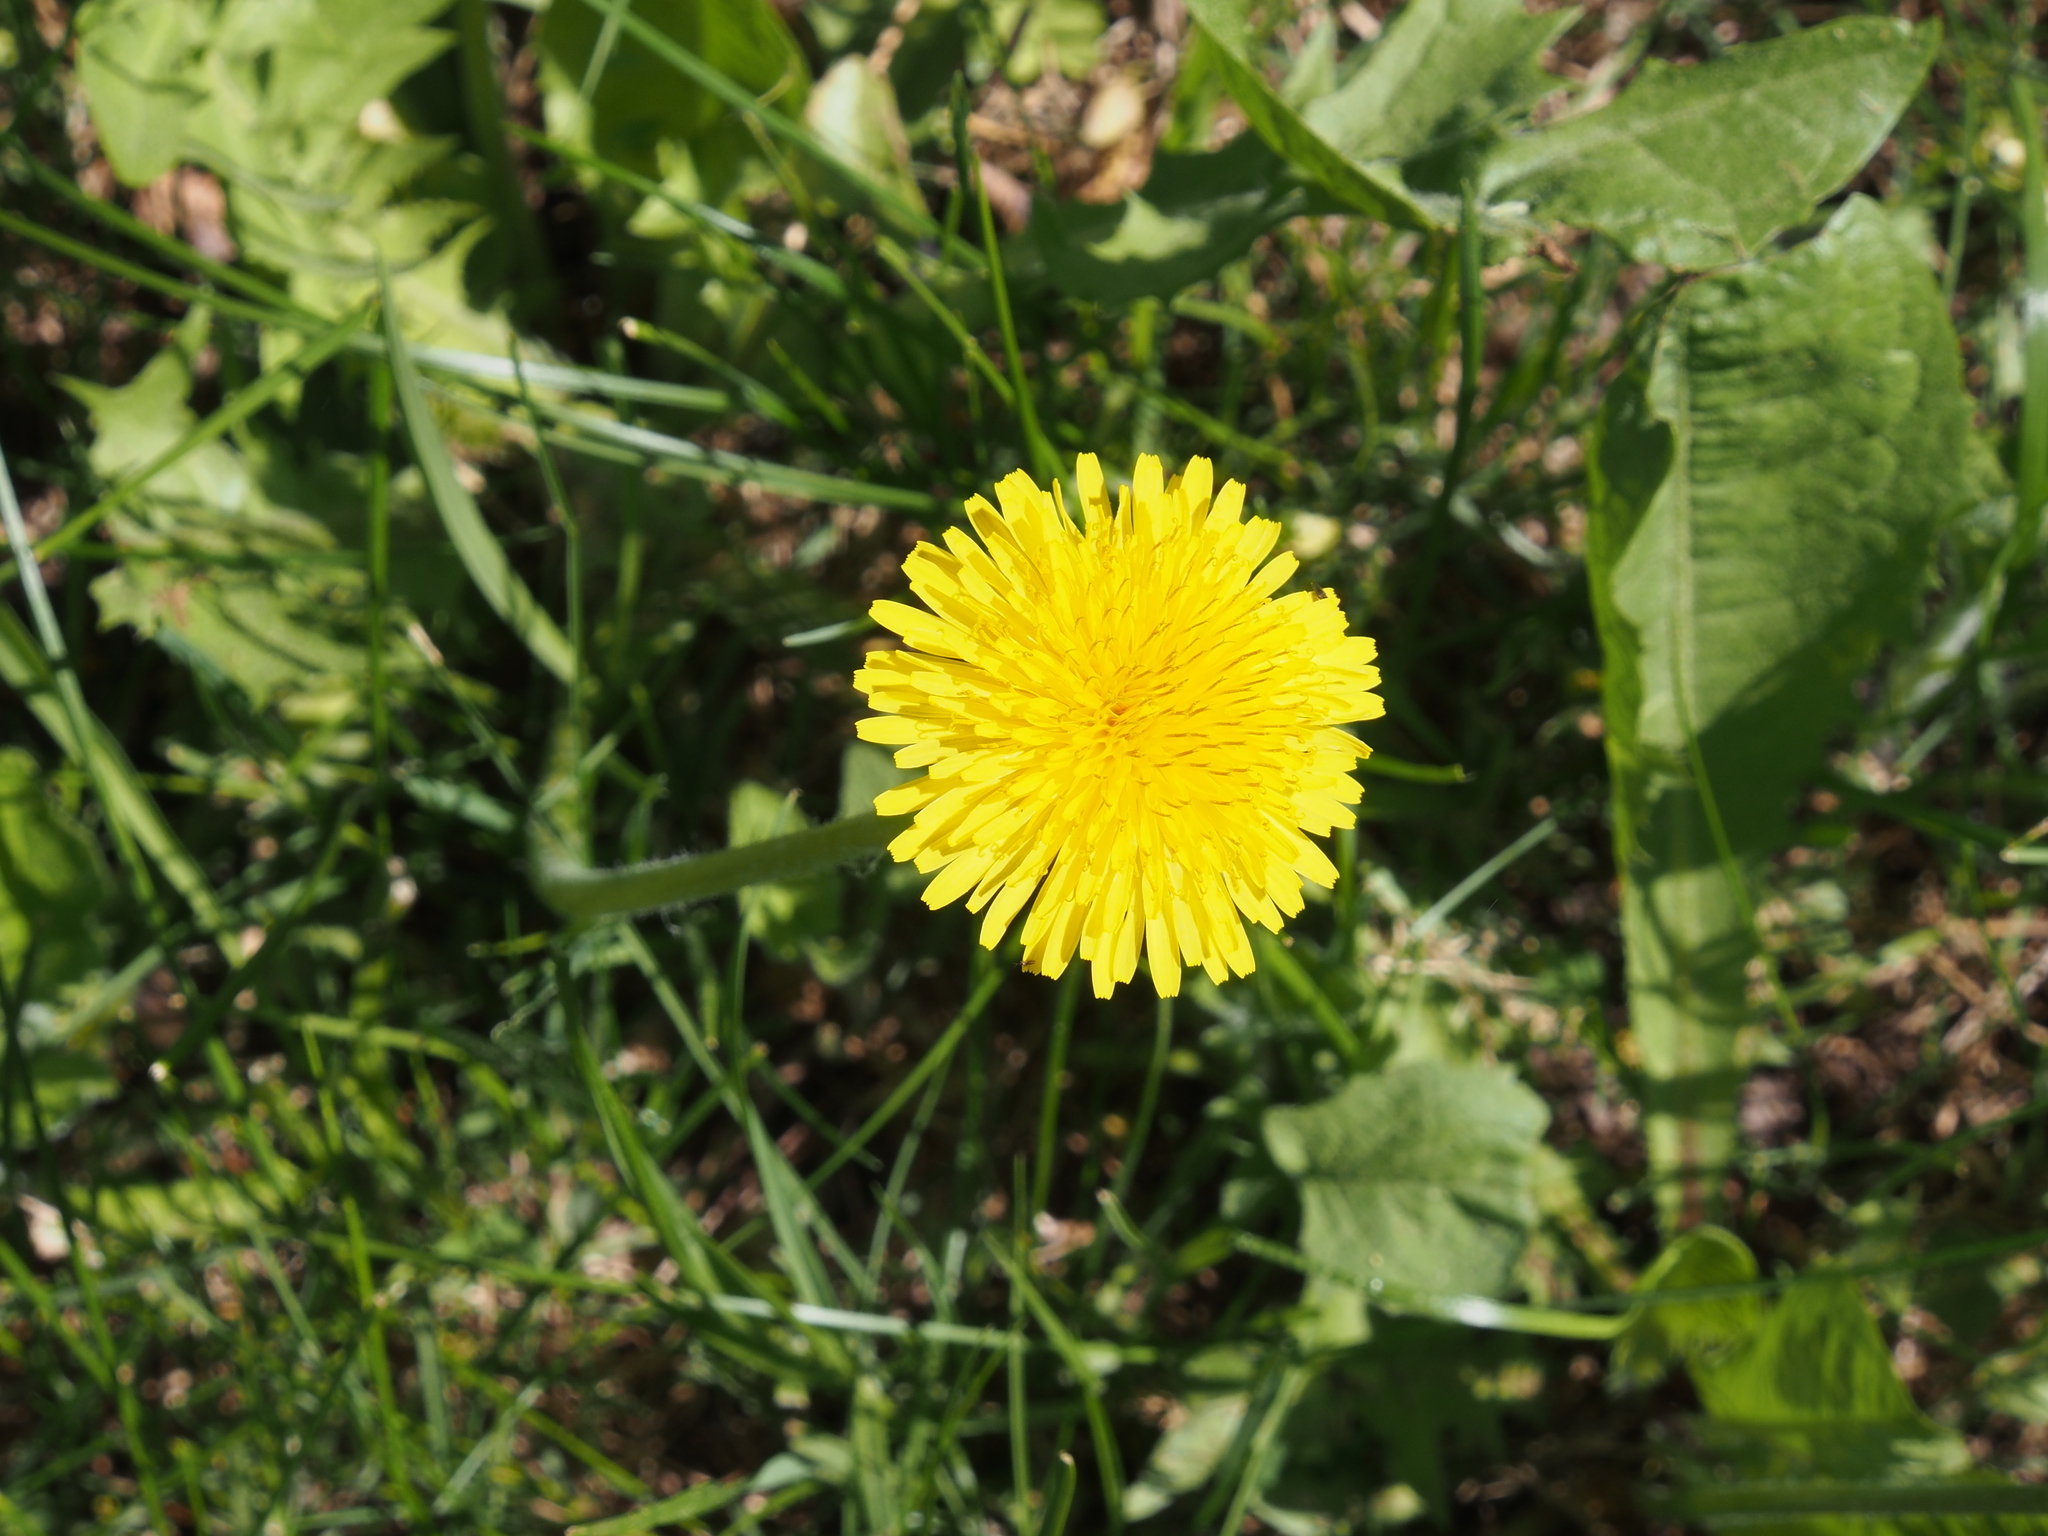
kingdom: Plantae
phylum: Tracheophyta
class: Magnoliopsida
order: Asterales
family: Asteraceae
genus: Taraxacum
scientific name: Taraxacum officinale
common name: Common dandelion
